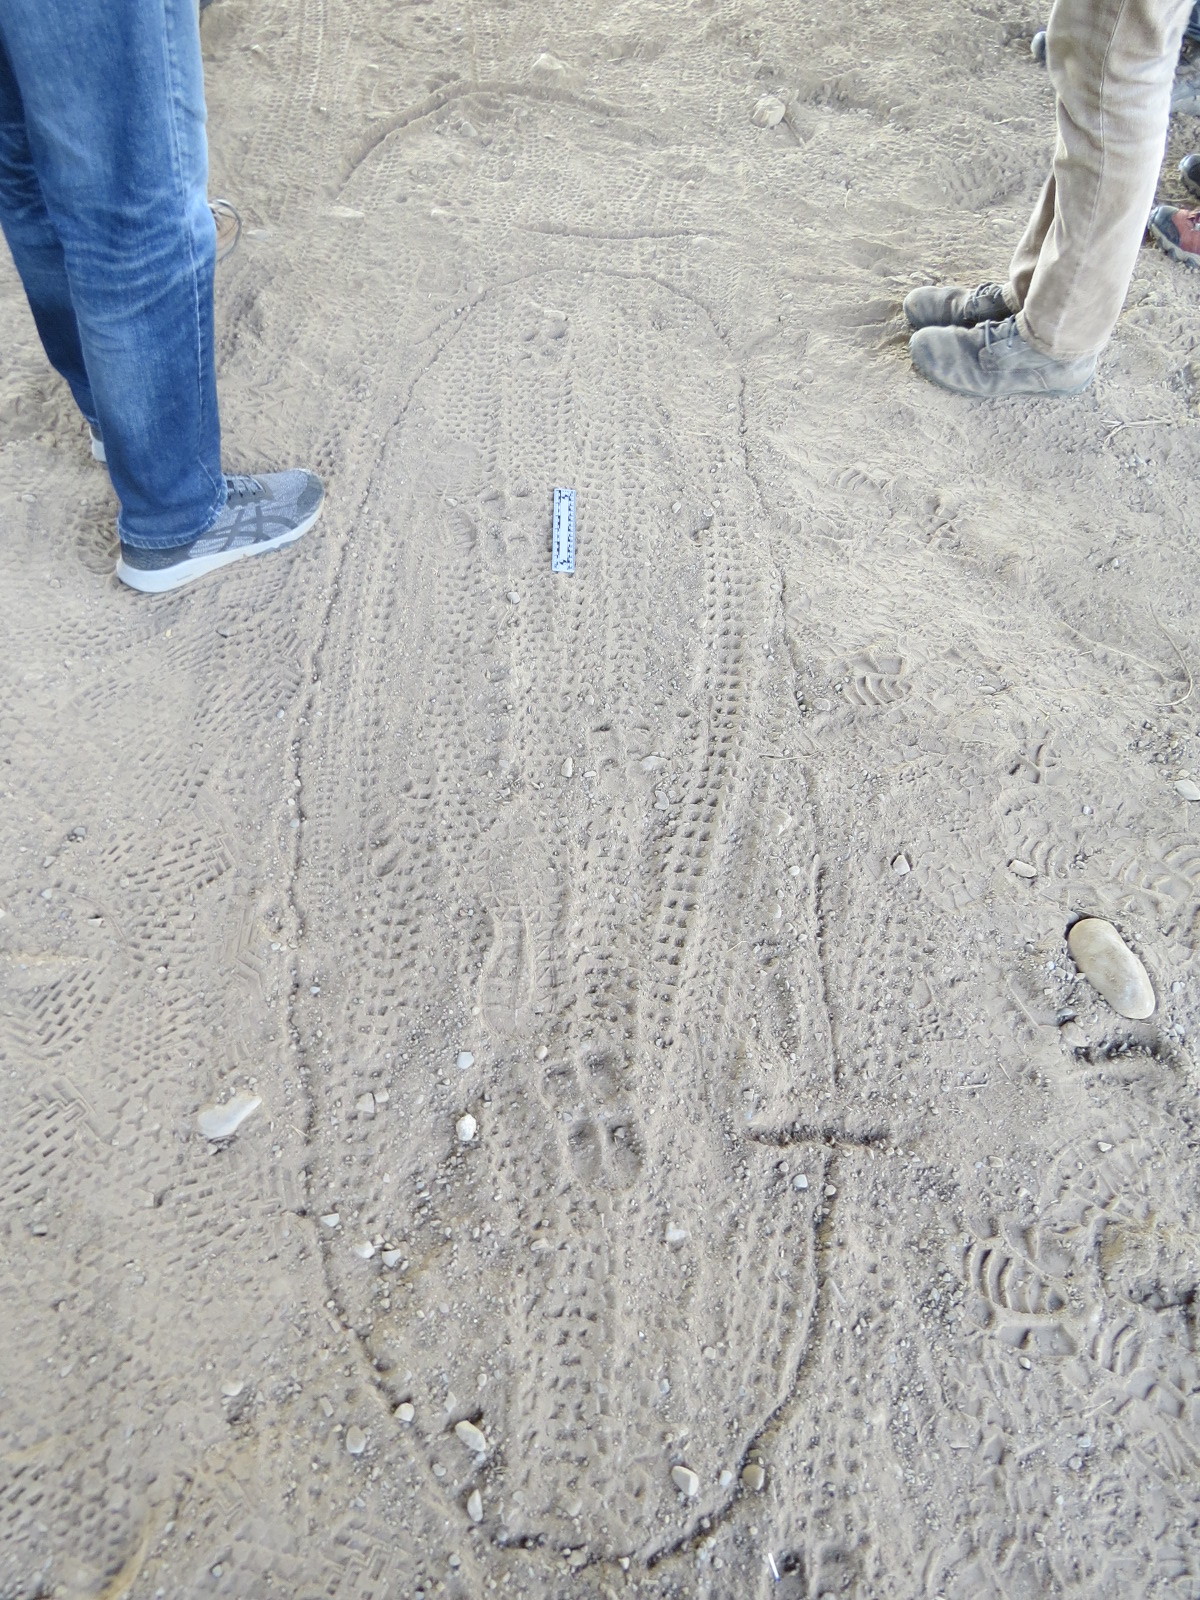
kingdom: Animalia
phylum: Chordata
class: Mammalia
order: Artiodactyla
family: Suidae
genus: Sus
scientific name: Sus scrofa
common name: Wild boar
